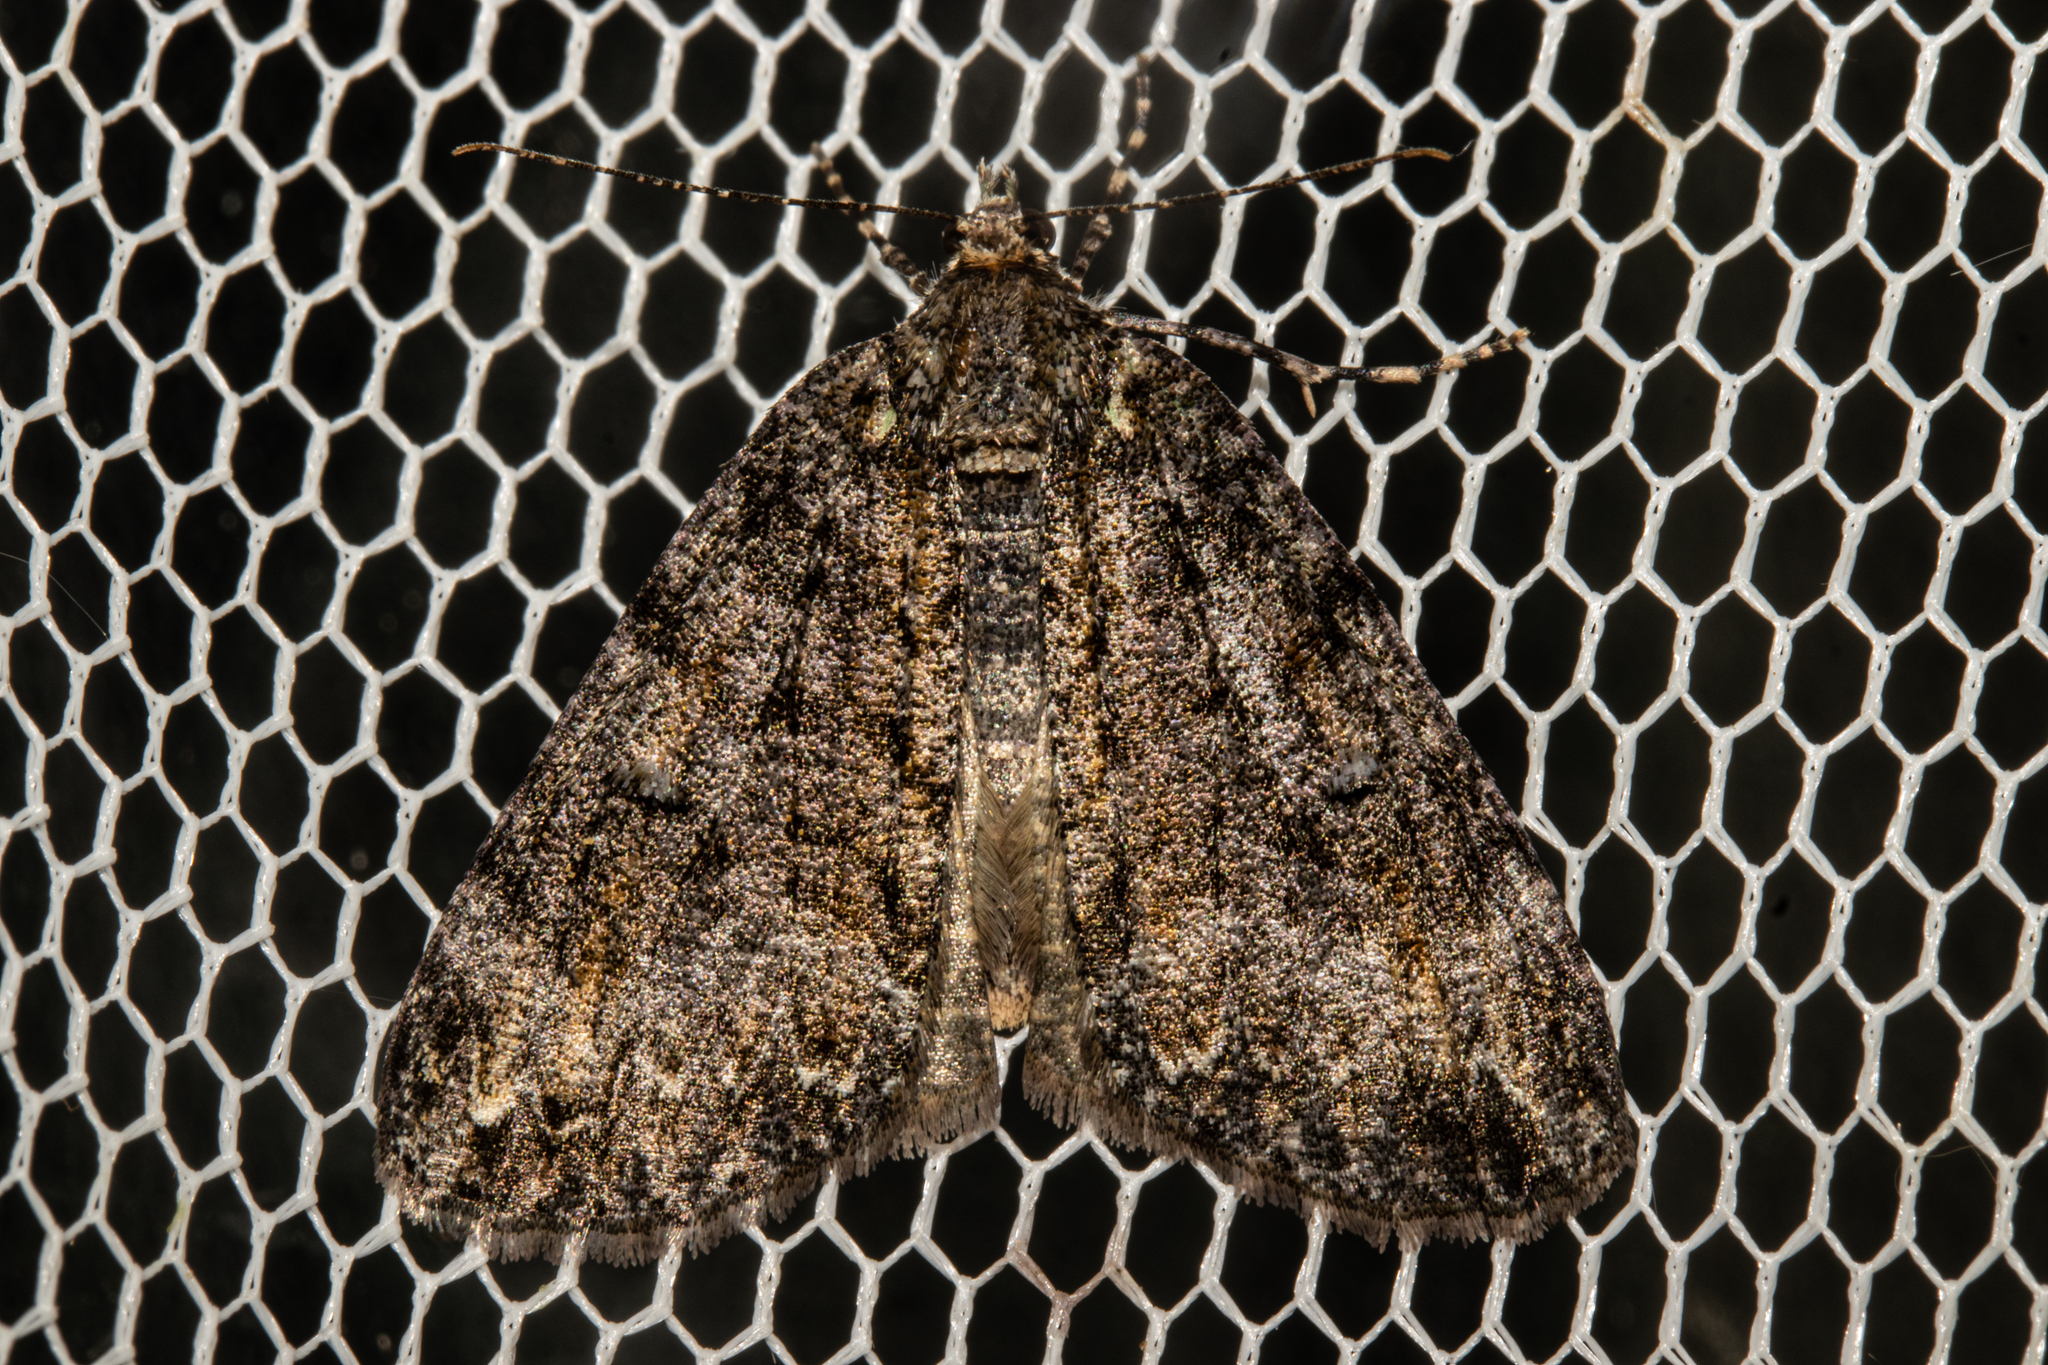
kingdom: Animalia
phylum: Arthropoda
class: Insecta
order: Lepidoptera
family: Geometridae
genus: Pseudocoremia
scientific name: Pseudocoremia suavis
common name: Common forest looper
